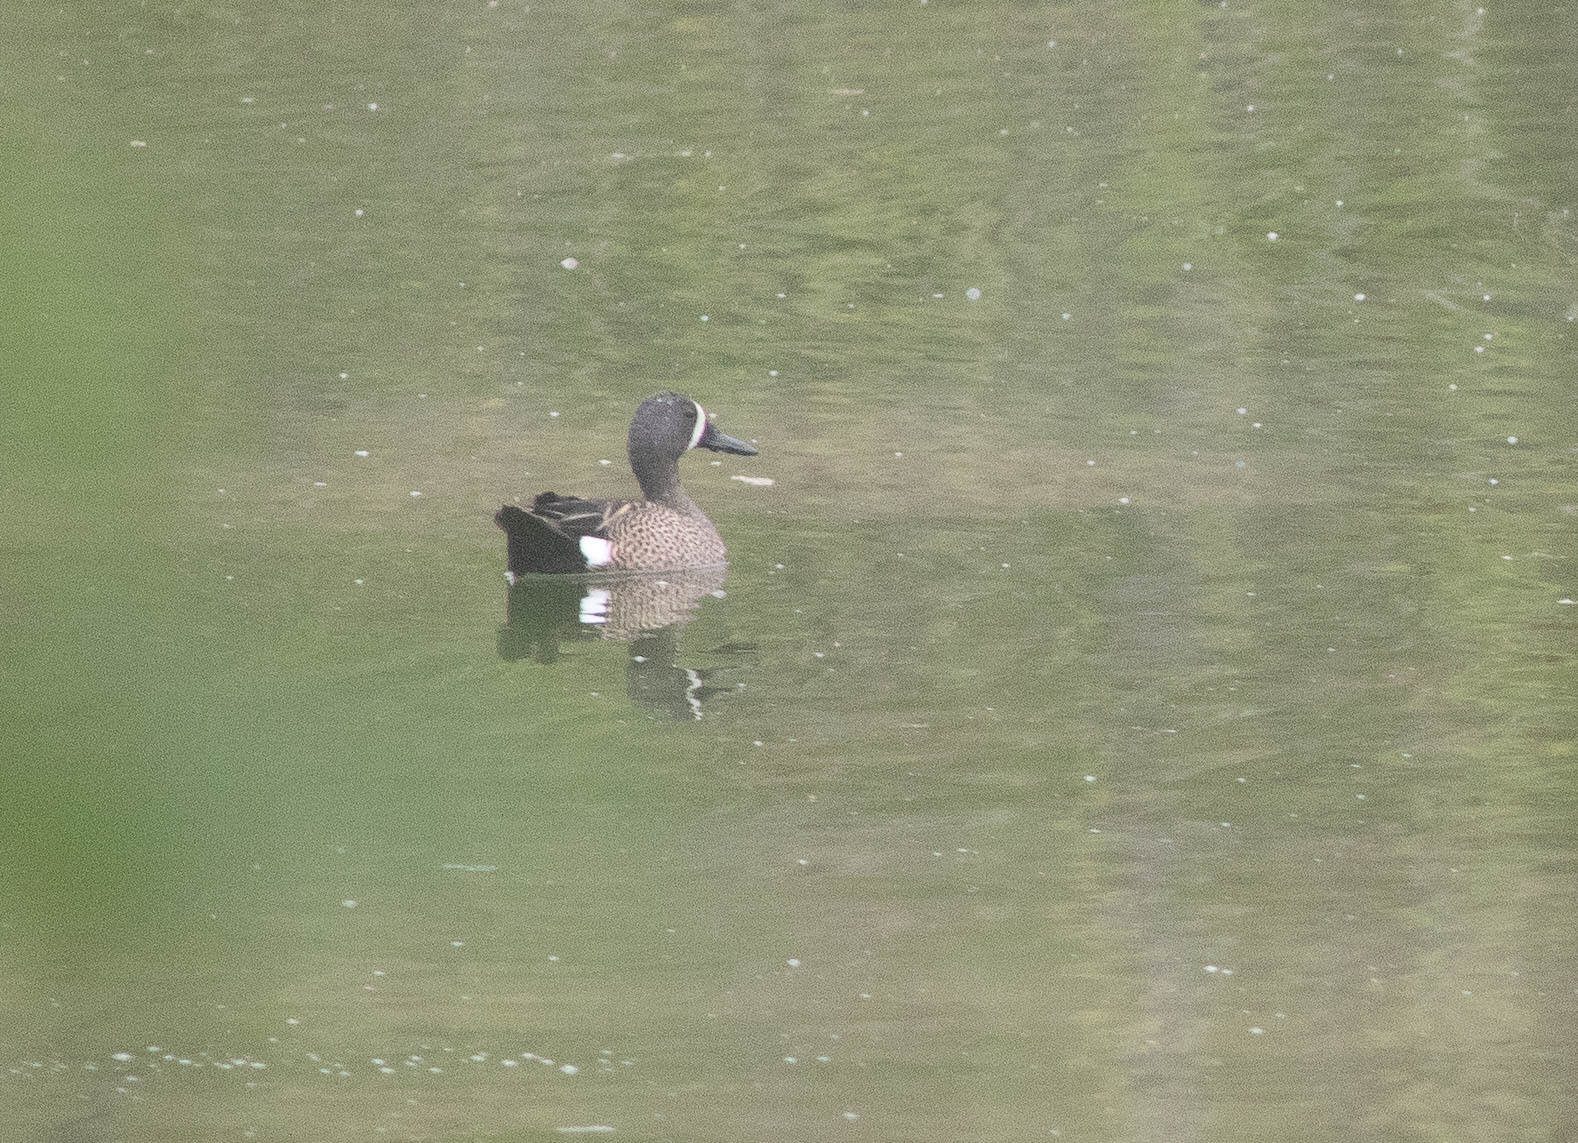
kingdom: Animalia
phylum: Chordata
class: Aves
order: Anseriformes
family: Anatidae
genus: Spatula
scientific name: Spatula discors
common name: Blue-winged teal
